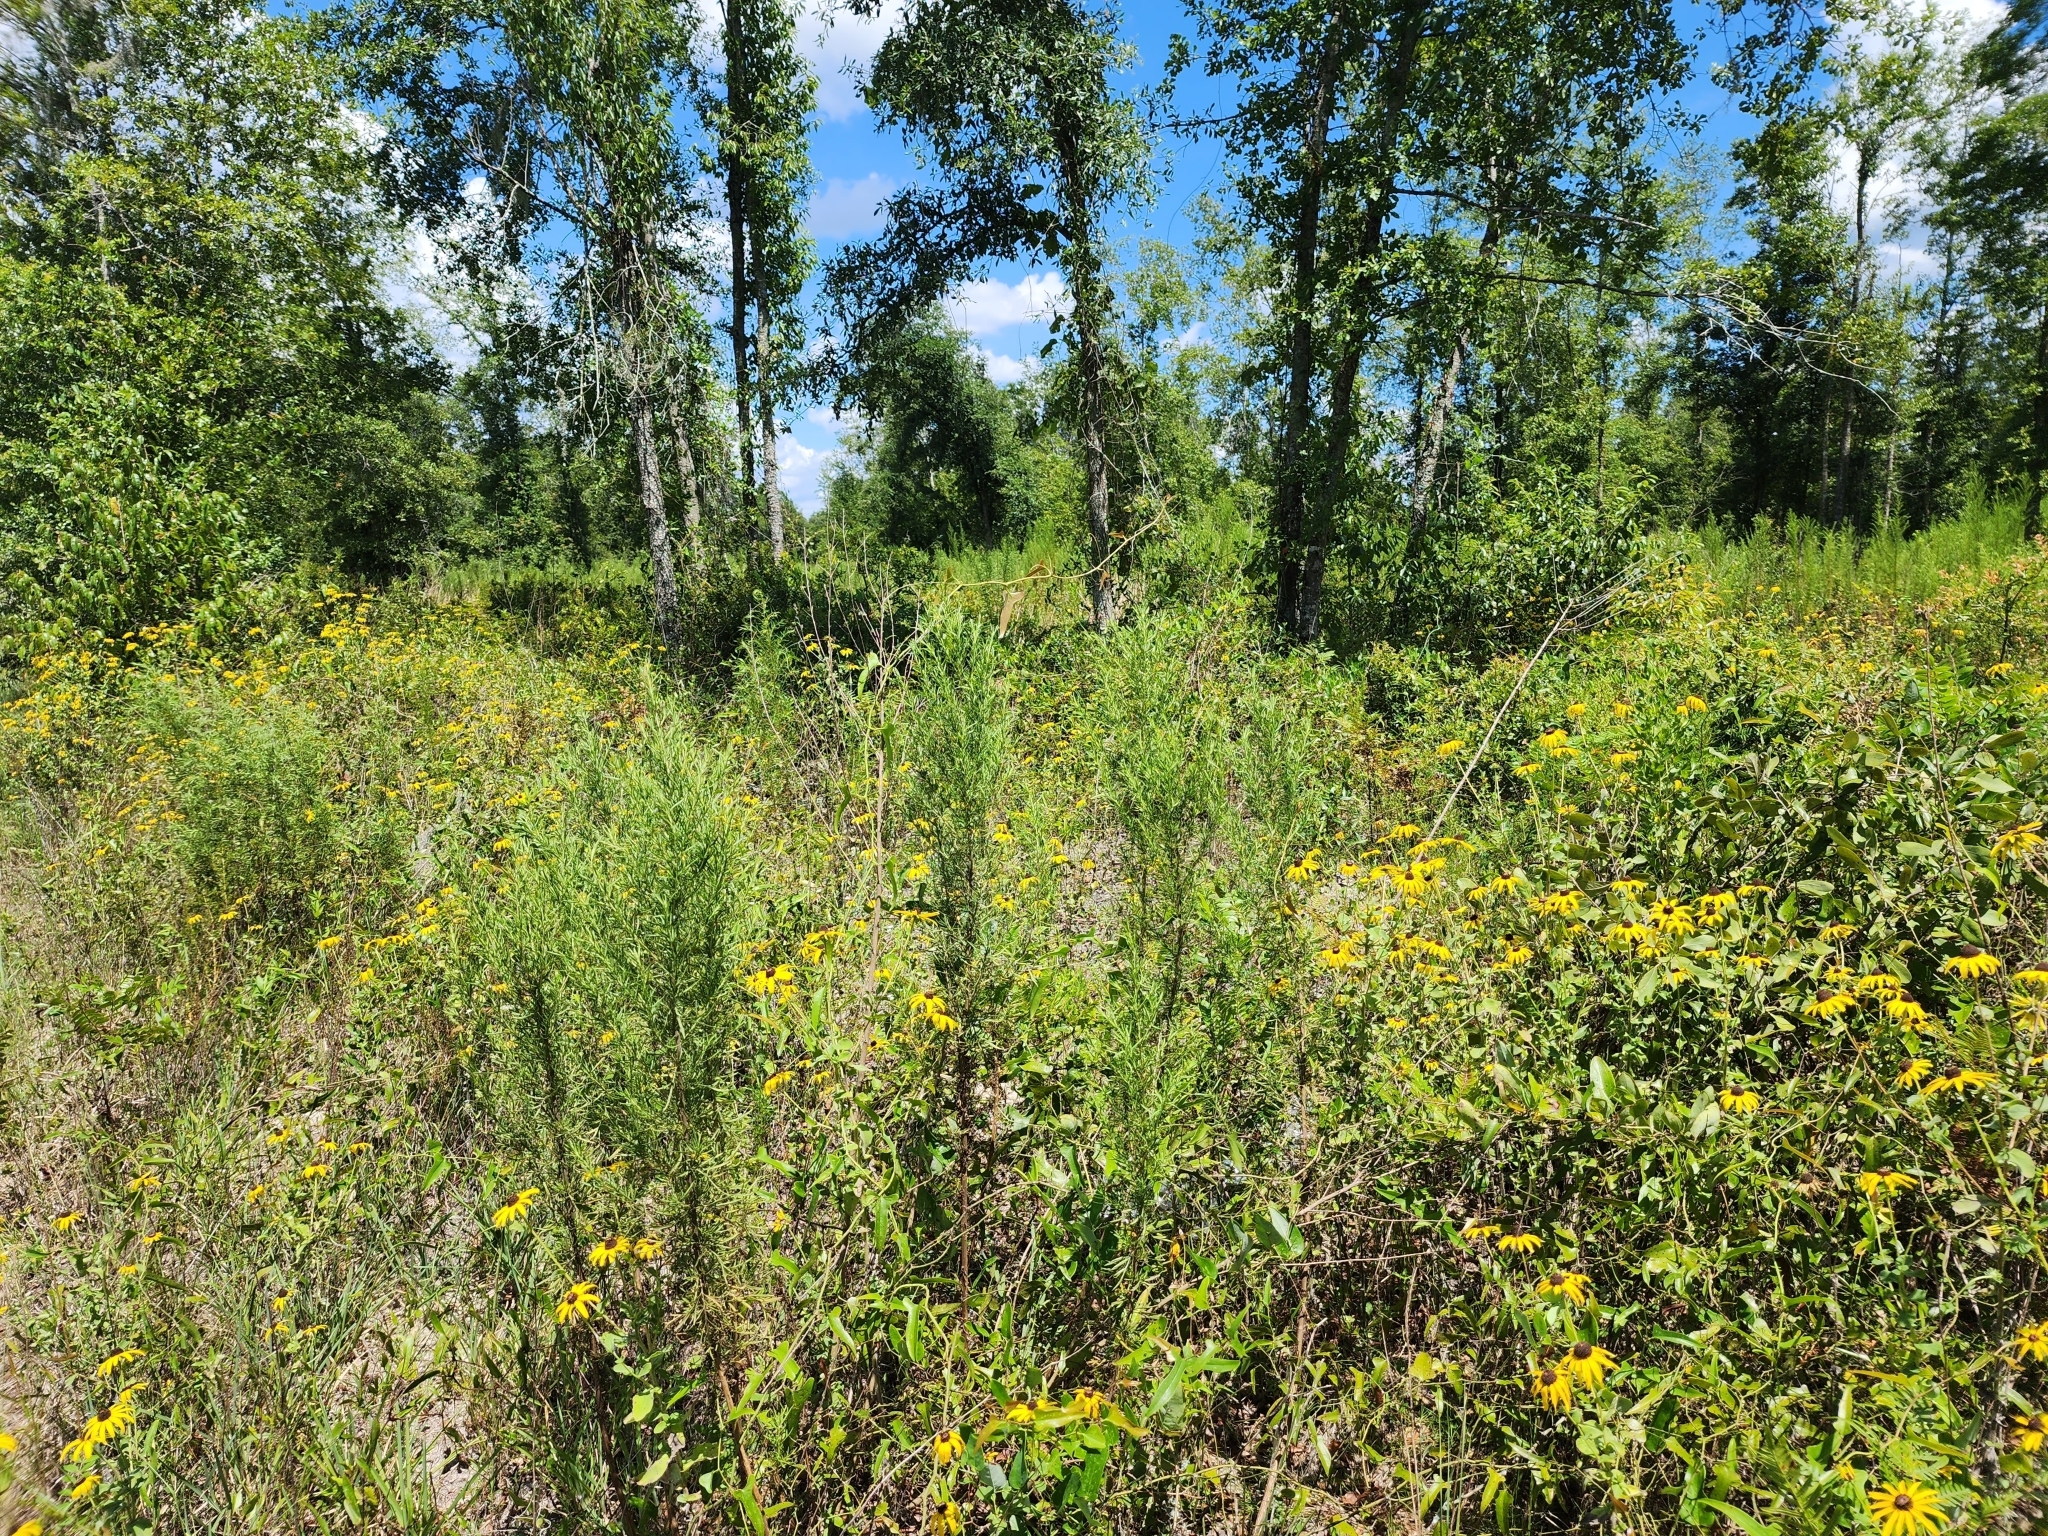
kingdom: Plantae
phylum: Tracheophyta
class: Magnoliopsida
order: Asterales
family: Asteraceae
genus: Rudbeckia
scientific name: Rudbeckia mollis
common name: Soft-hair coneflower
